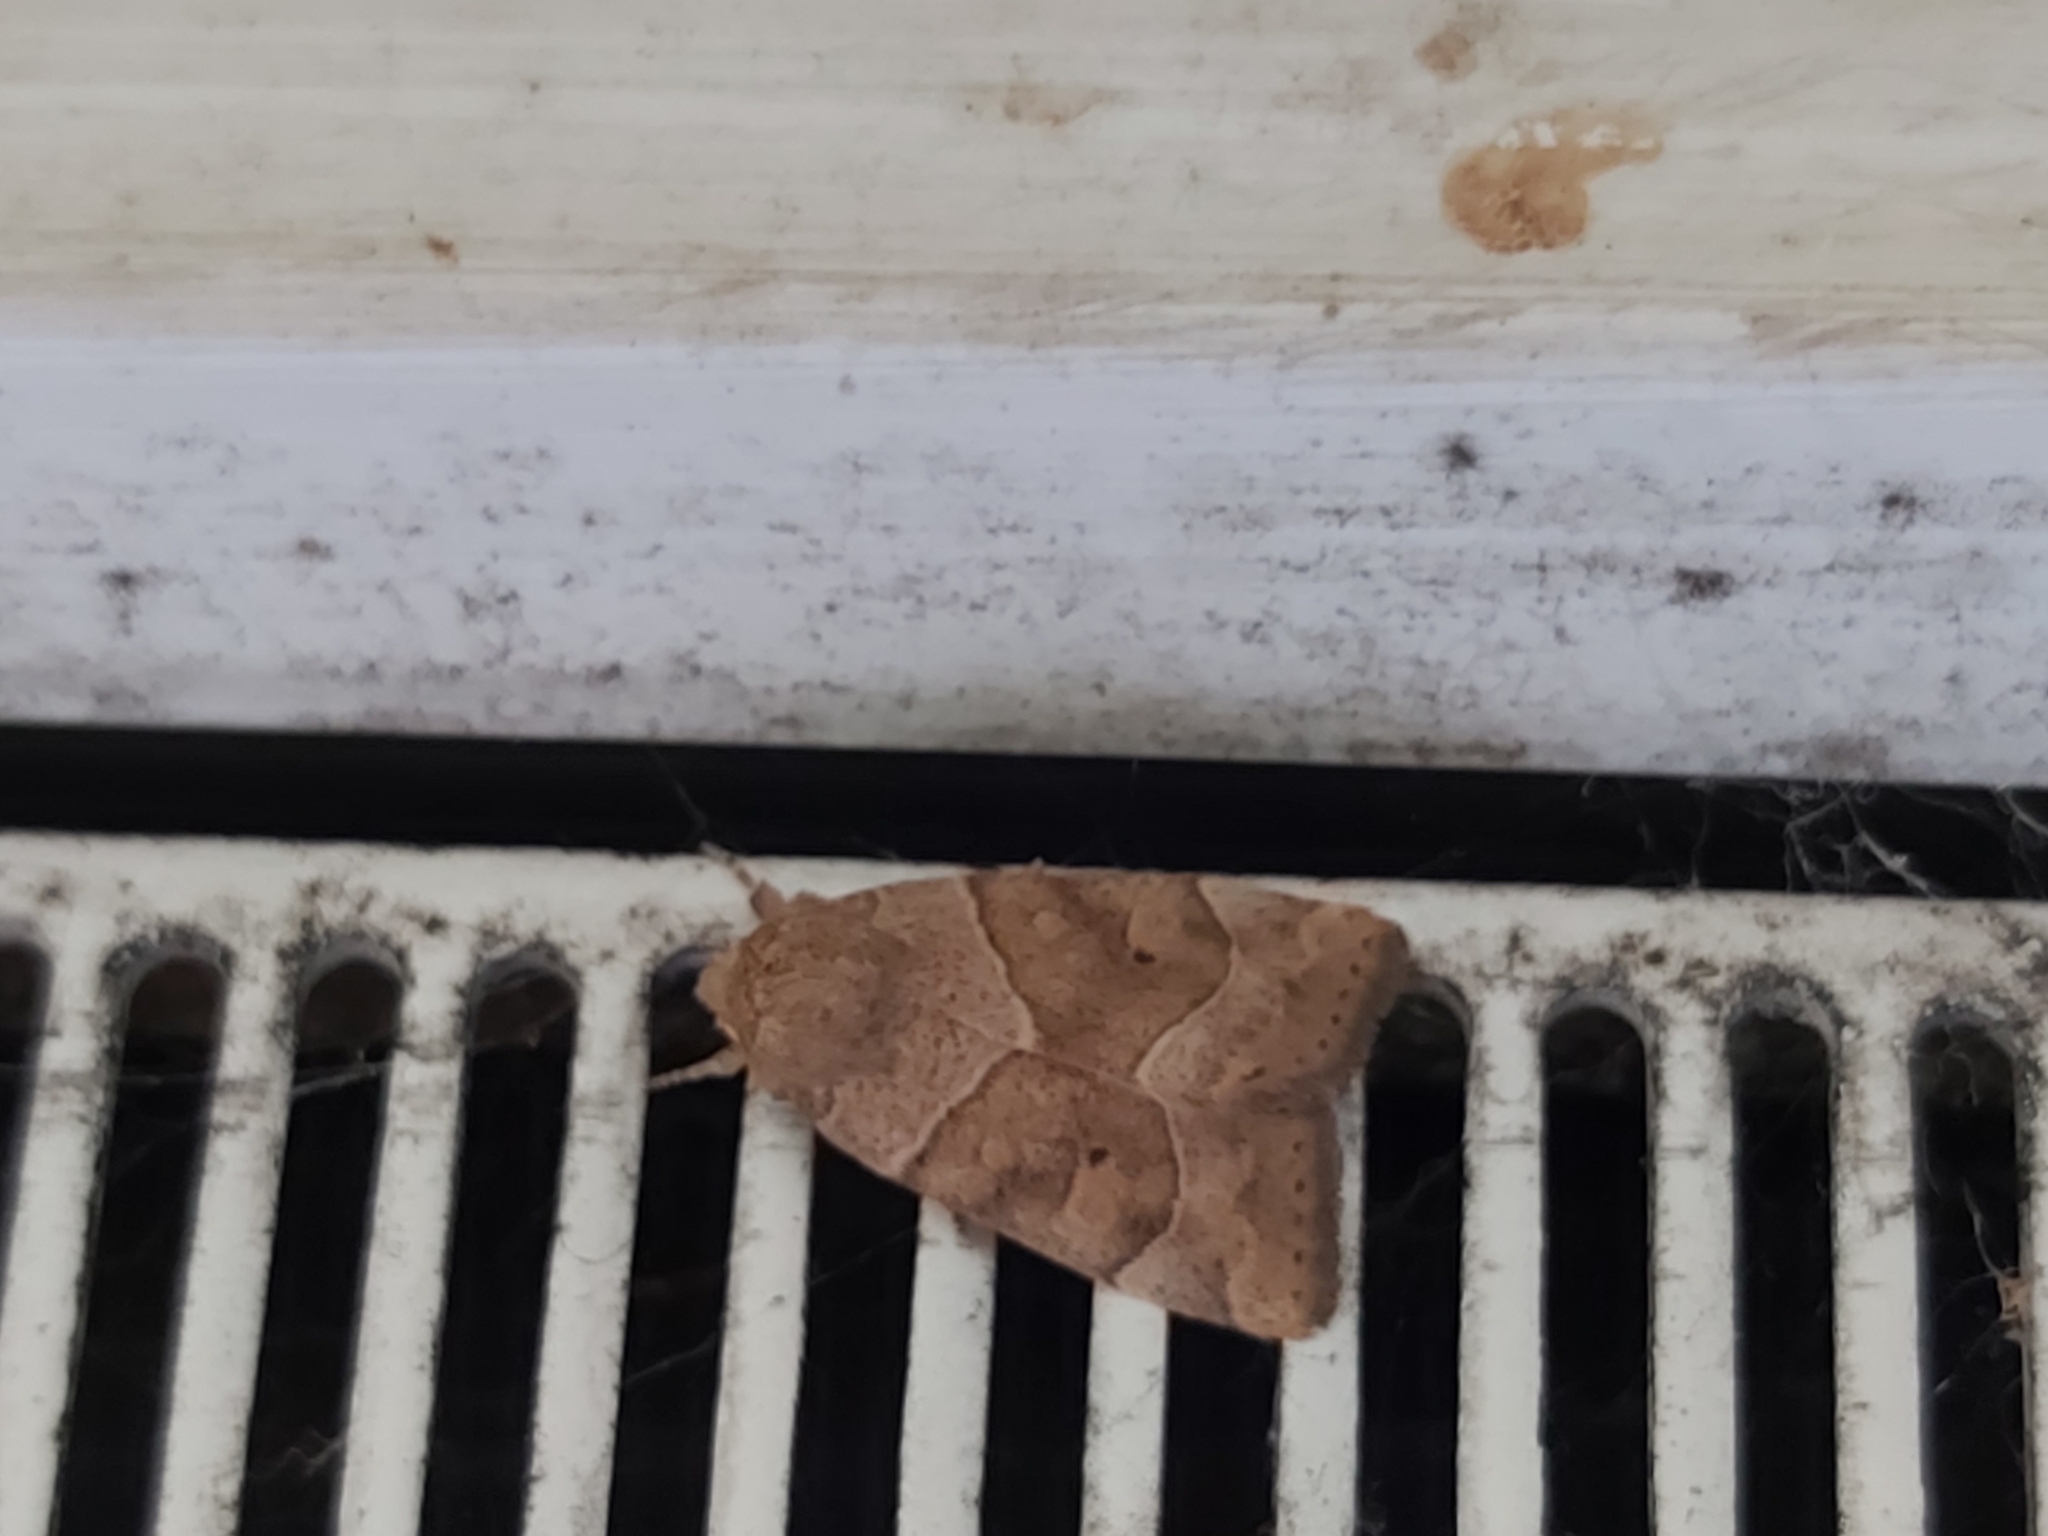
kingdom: Animalia
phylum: Arthropoda
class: Insecta
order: Lepidoptera
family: Noctuidae
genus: Cosmia
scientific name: Cosmia trapezina
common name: Dun-bar
